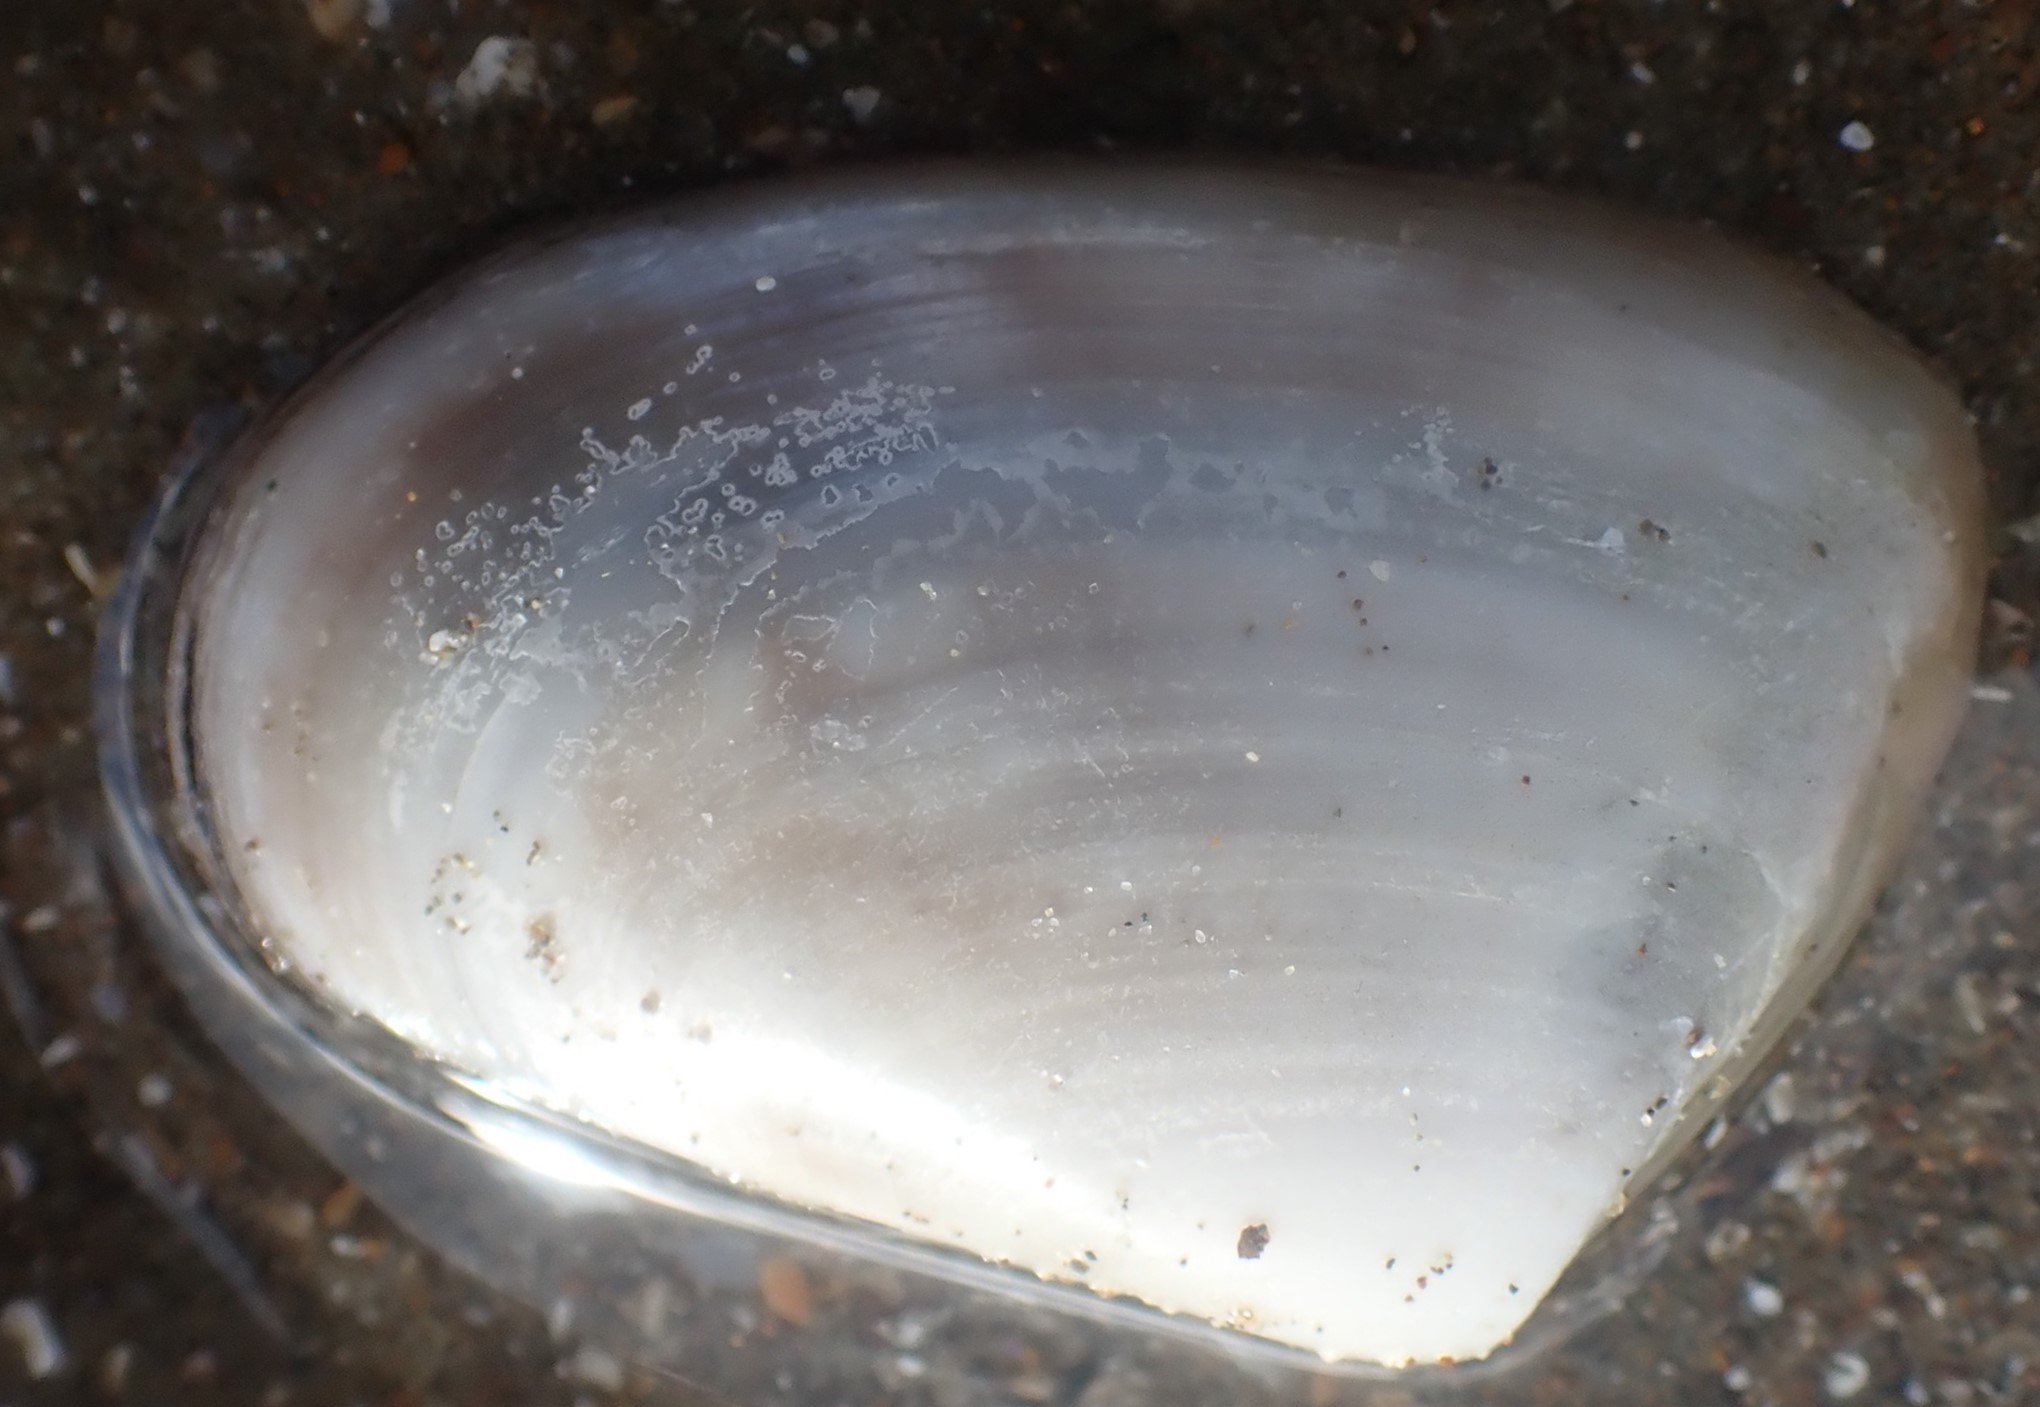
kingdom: Animalia
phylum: Mollusca
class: Bivalvia
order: Venerida
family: Mesodesmatidae
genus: Paphies
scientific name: Paphies subtriangulata
